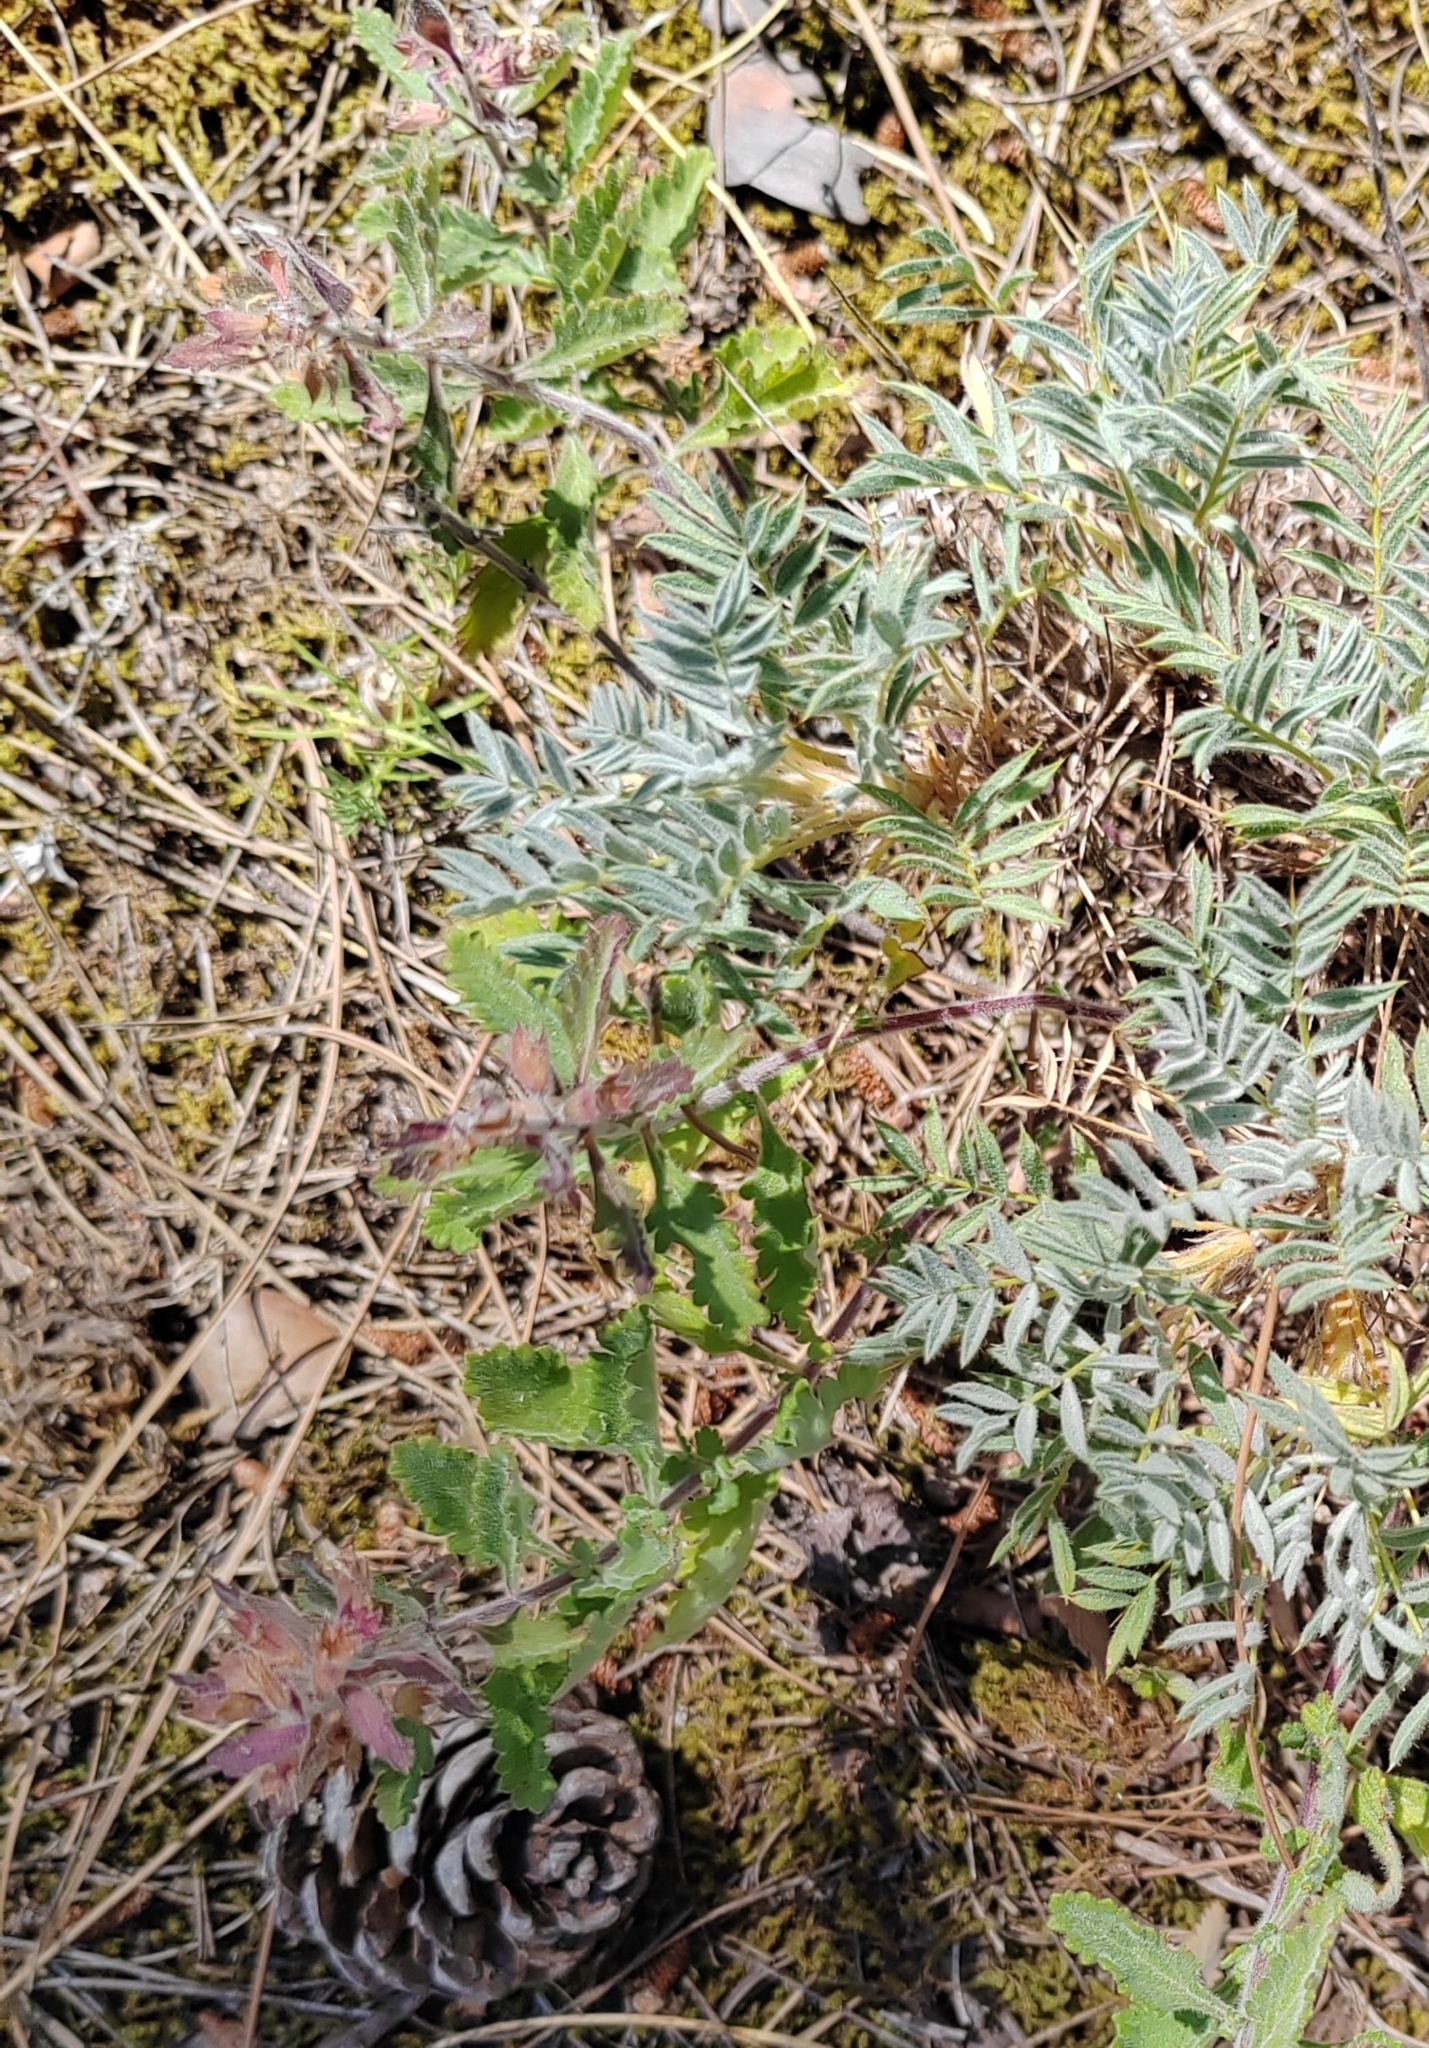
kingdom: Plantae
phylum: Tracheophyta
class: Magnoliopsida
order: Fabales
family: Fabaceae
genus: Astragalus
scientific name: Astragalus arnacanthoides
